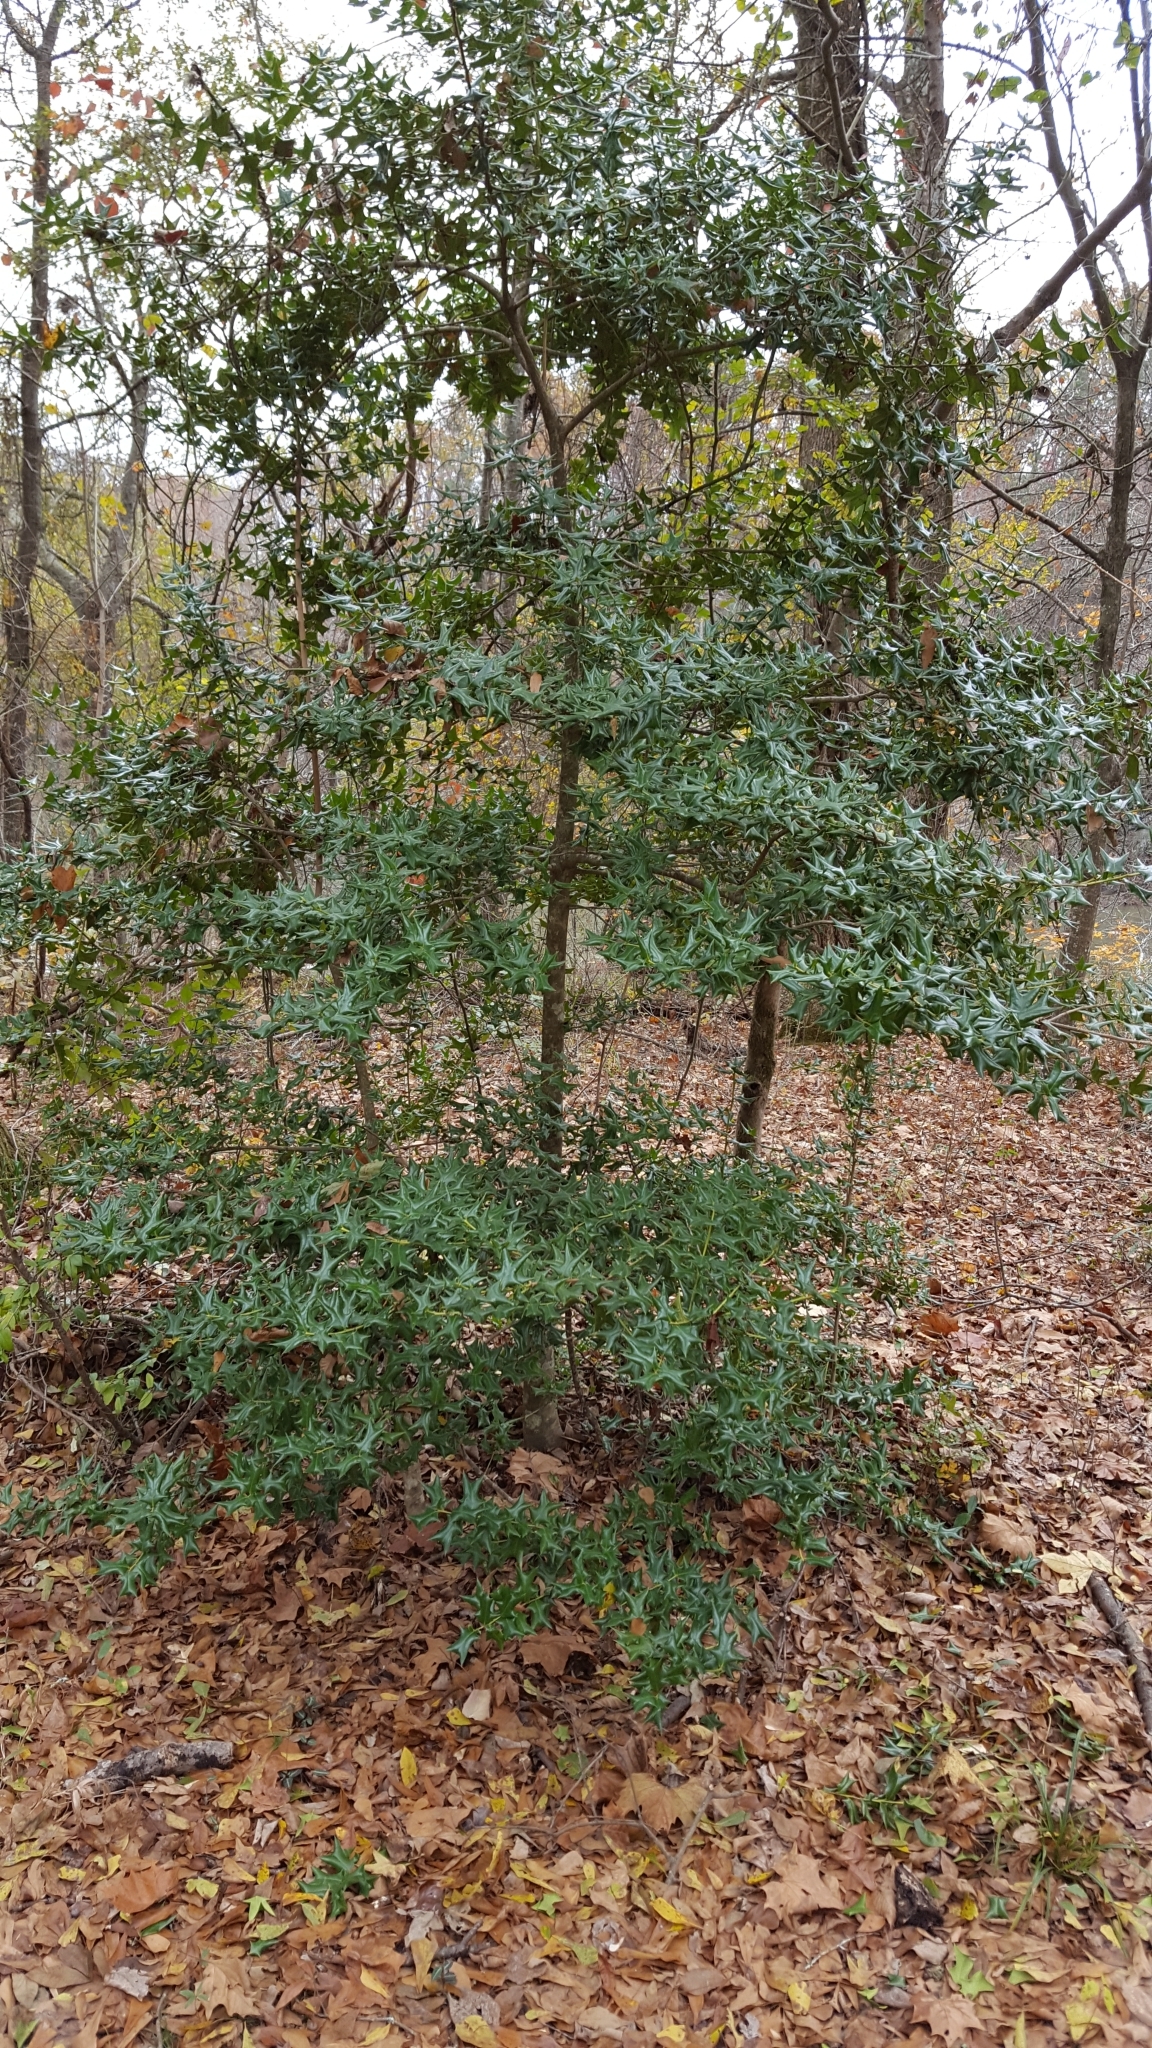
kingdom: Plantae
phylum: Tracheophyta
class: Magnoliopsida
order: Aquifoliales
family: Aquifoliaceae
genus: Ilex
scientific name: Ilex cornuta
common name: Chinese holly
